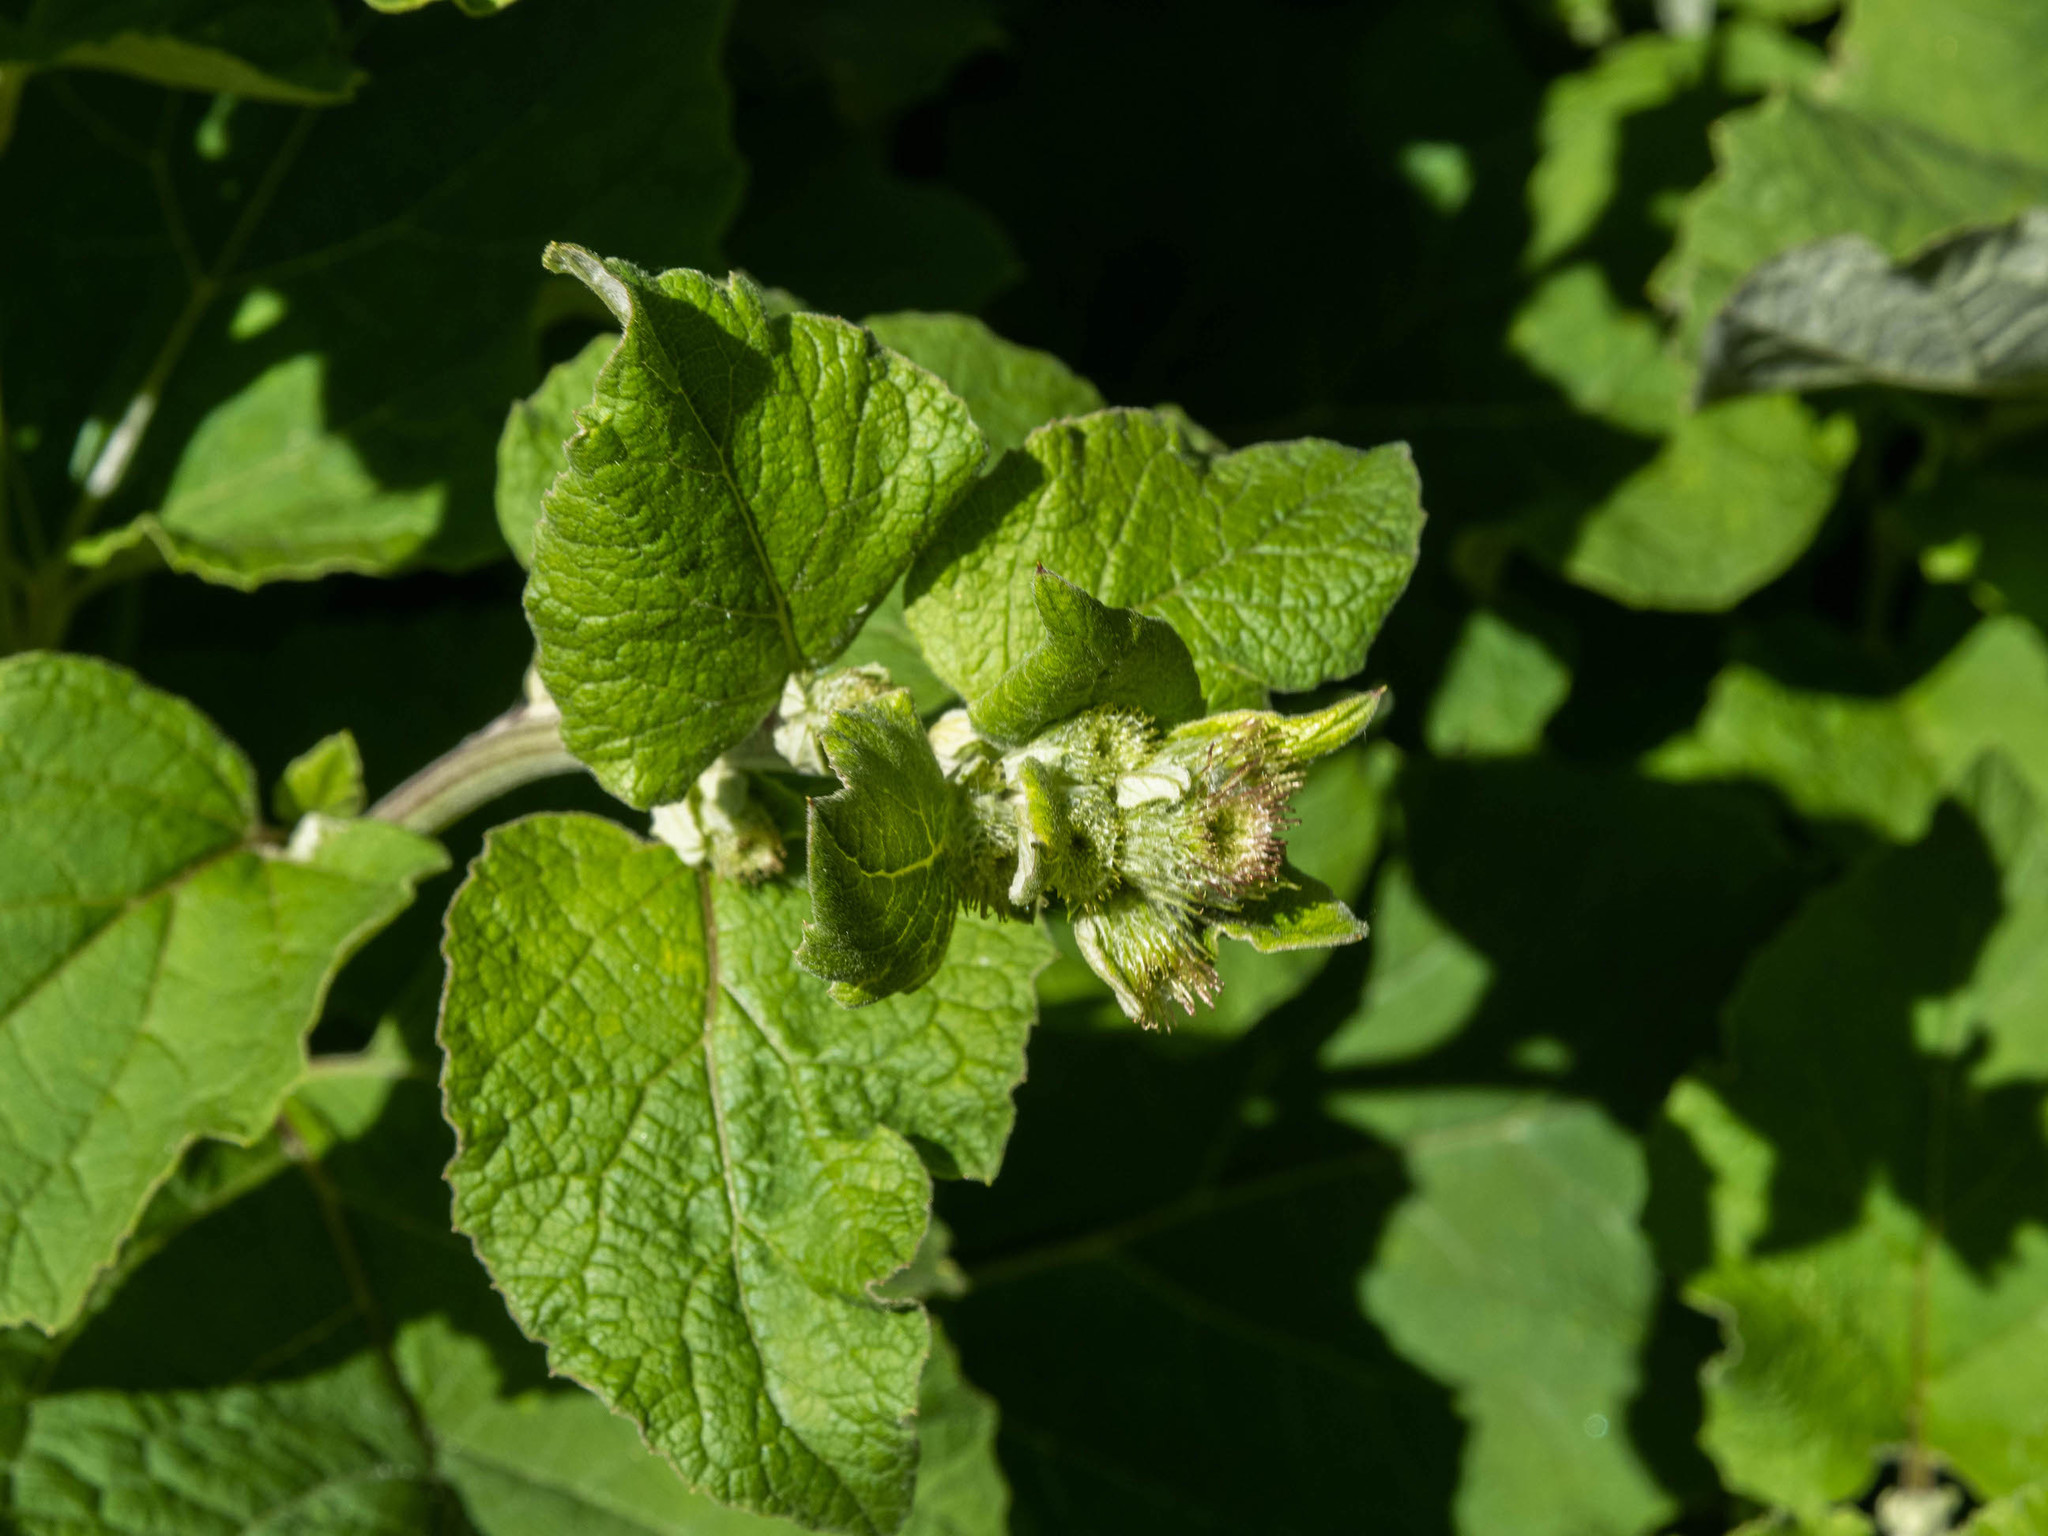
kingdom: Plantae
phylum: Tracheophyta
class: Magnoliopsida
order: Asterales
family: Asteraceae
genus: Arctium
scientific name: Arctium minus
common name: Lesser burdock
